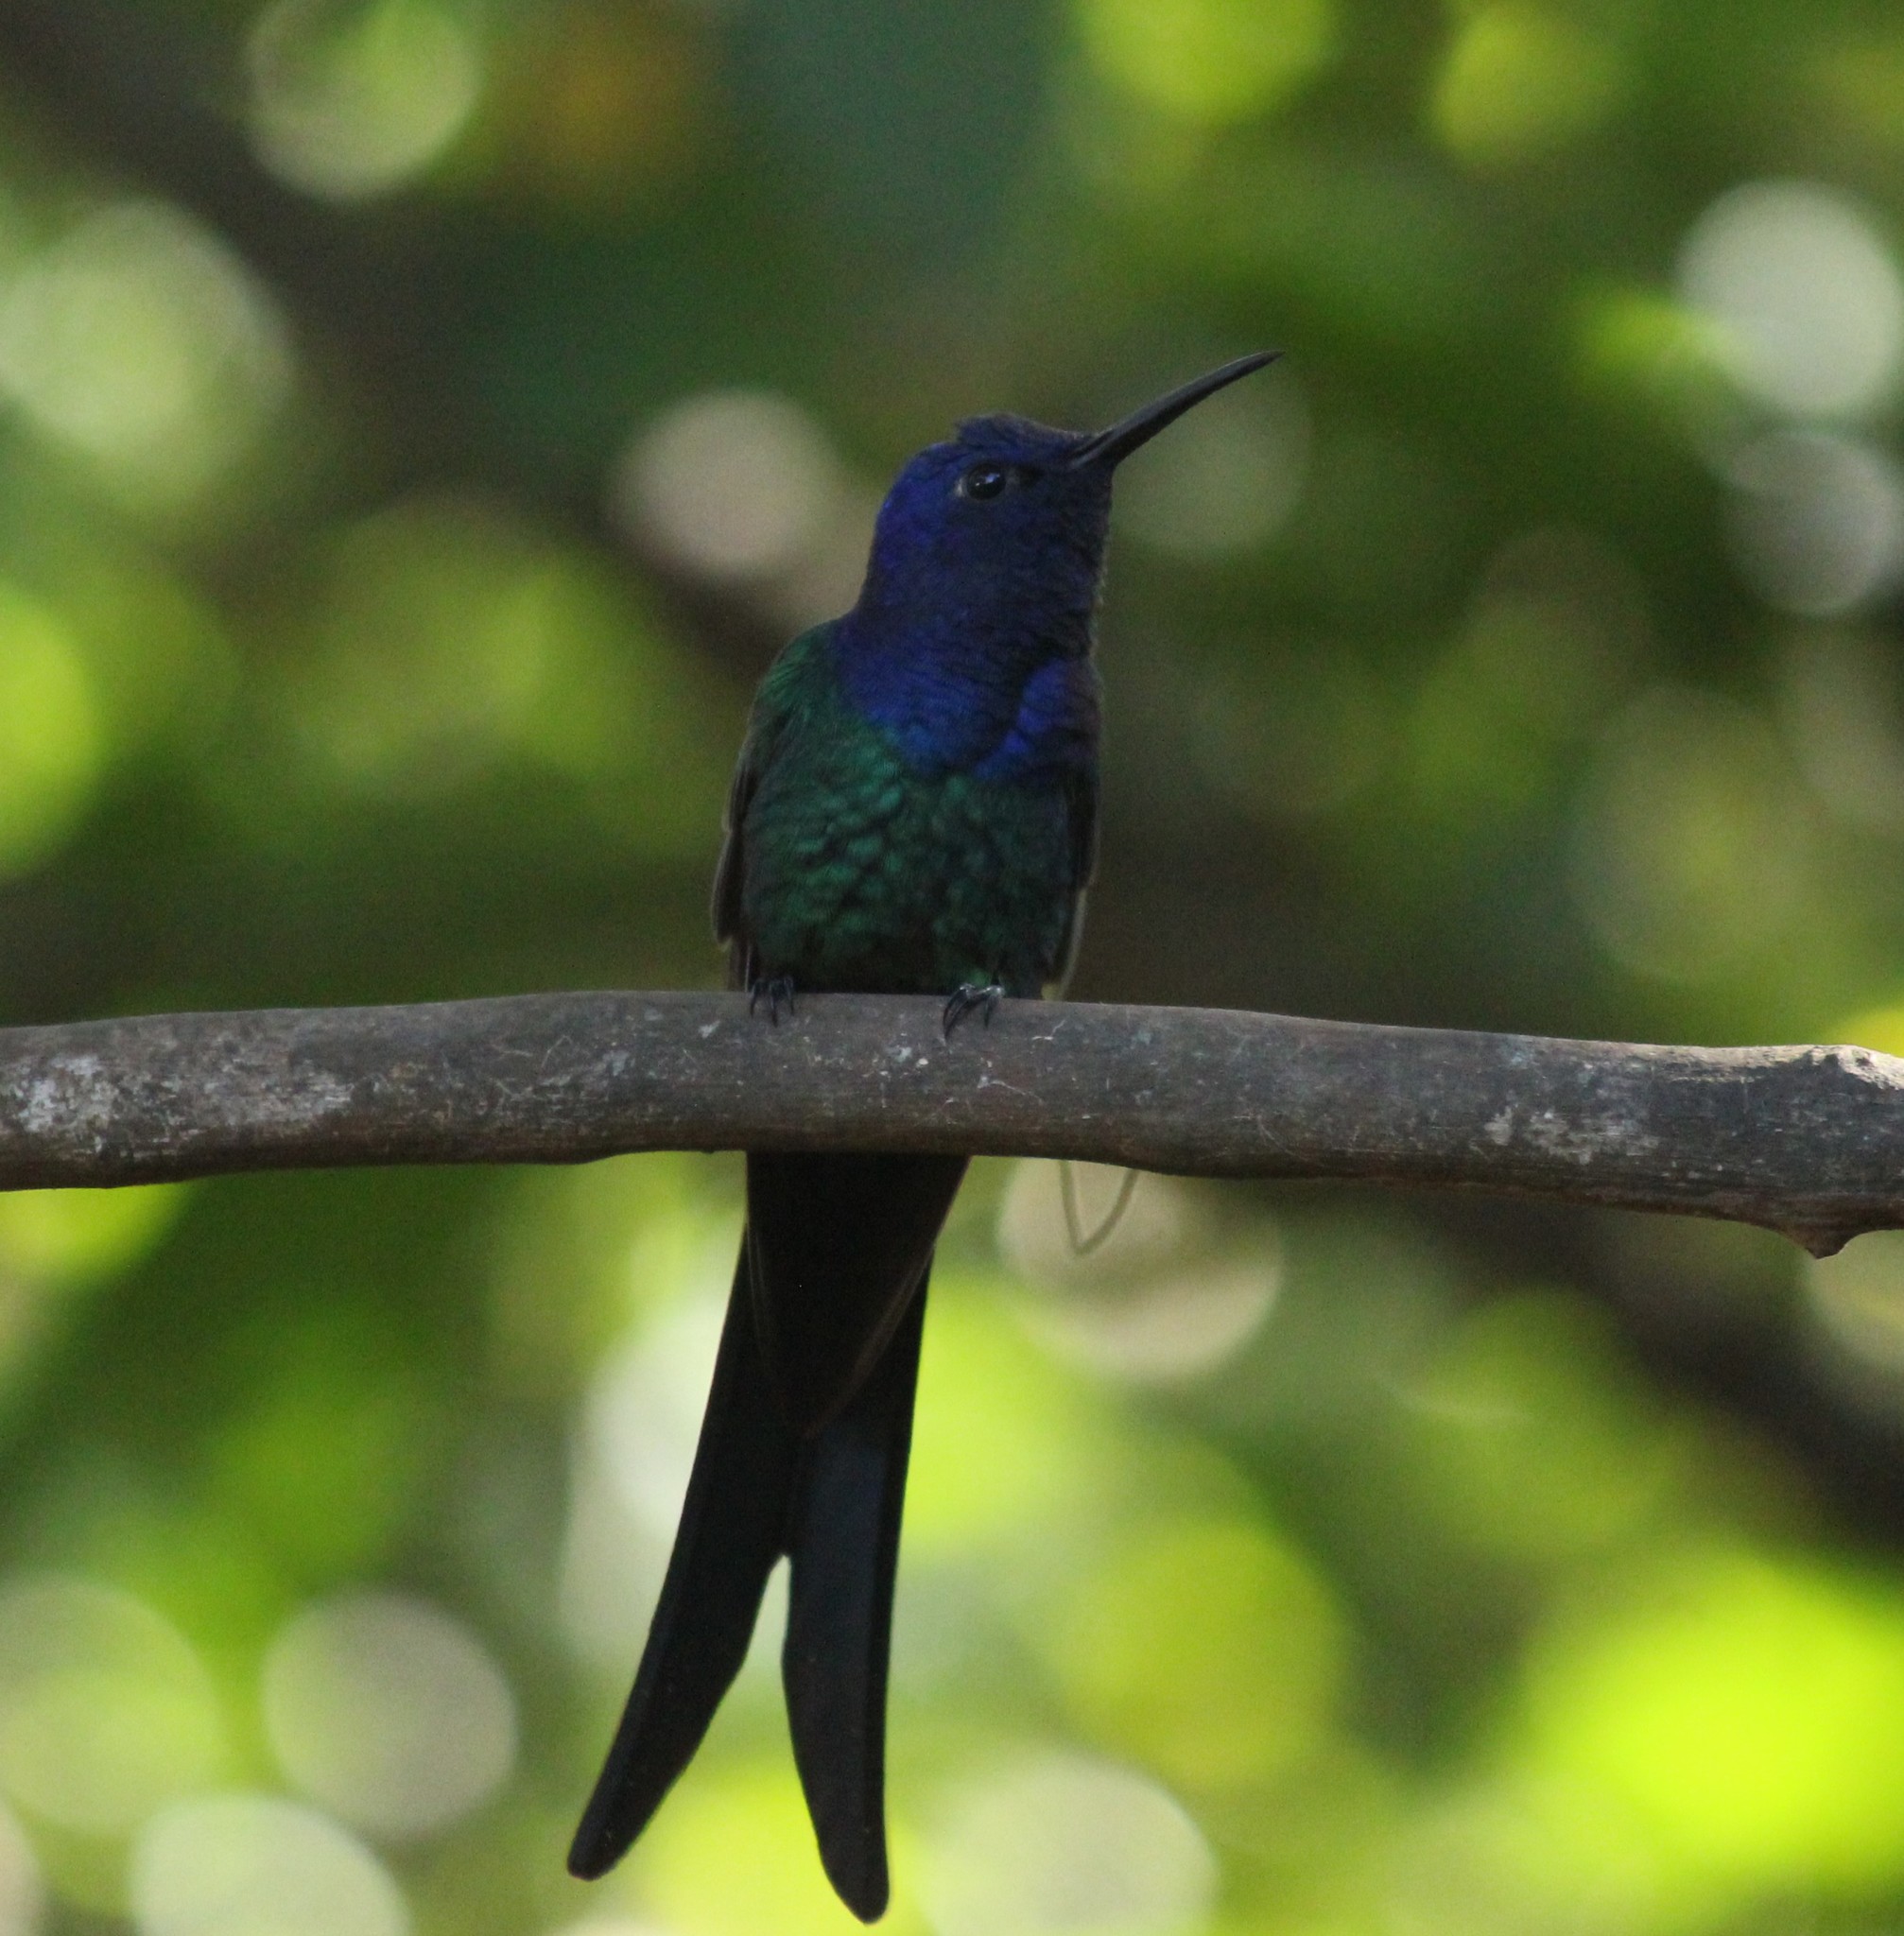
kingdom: Animalia
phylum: Chordata
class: Aves
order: Apodiformes
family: Trochilidae
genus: Eupetomena
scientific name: Eupetomena macroura
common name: Swallow-tailed hummingbird
